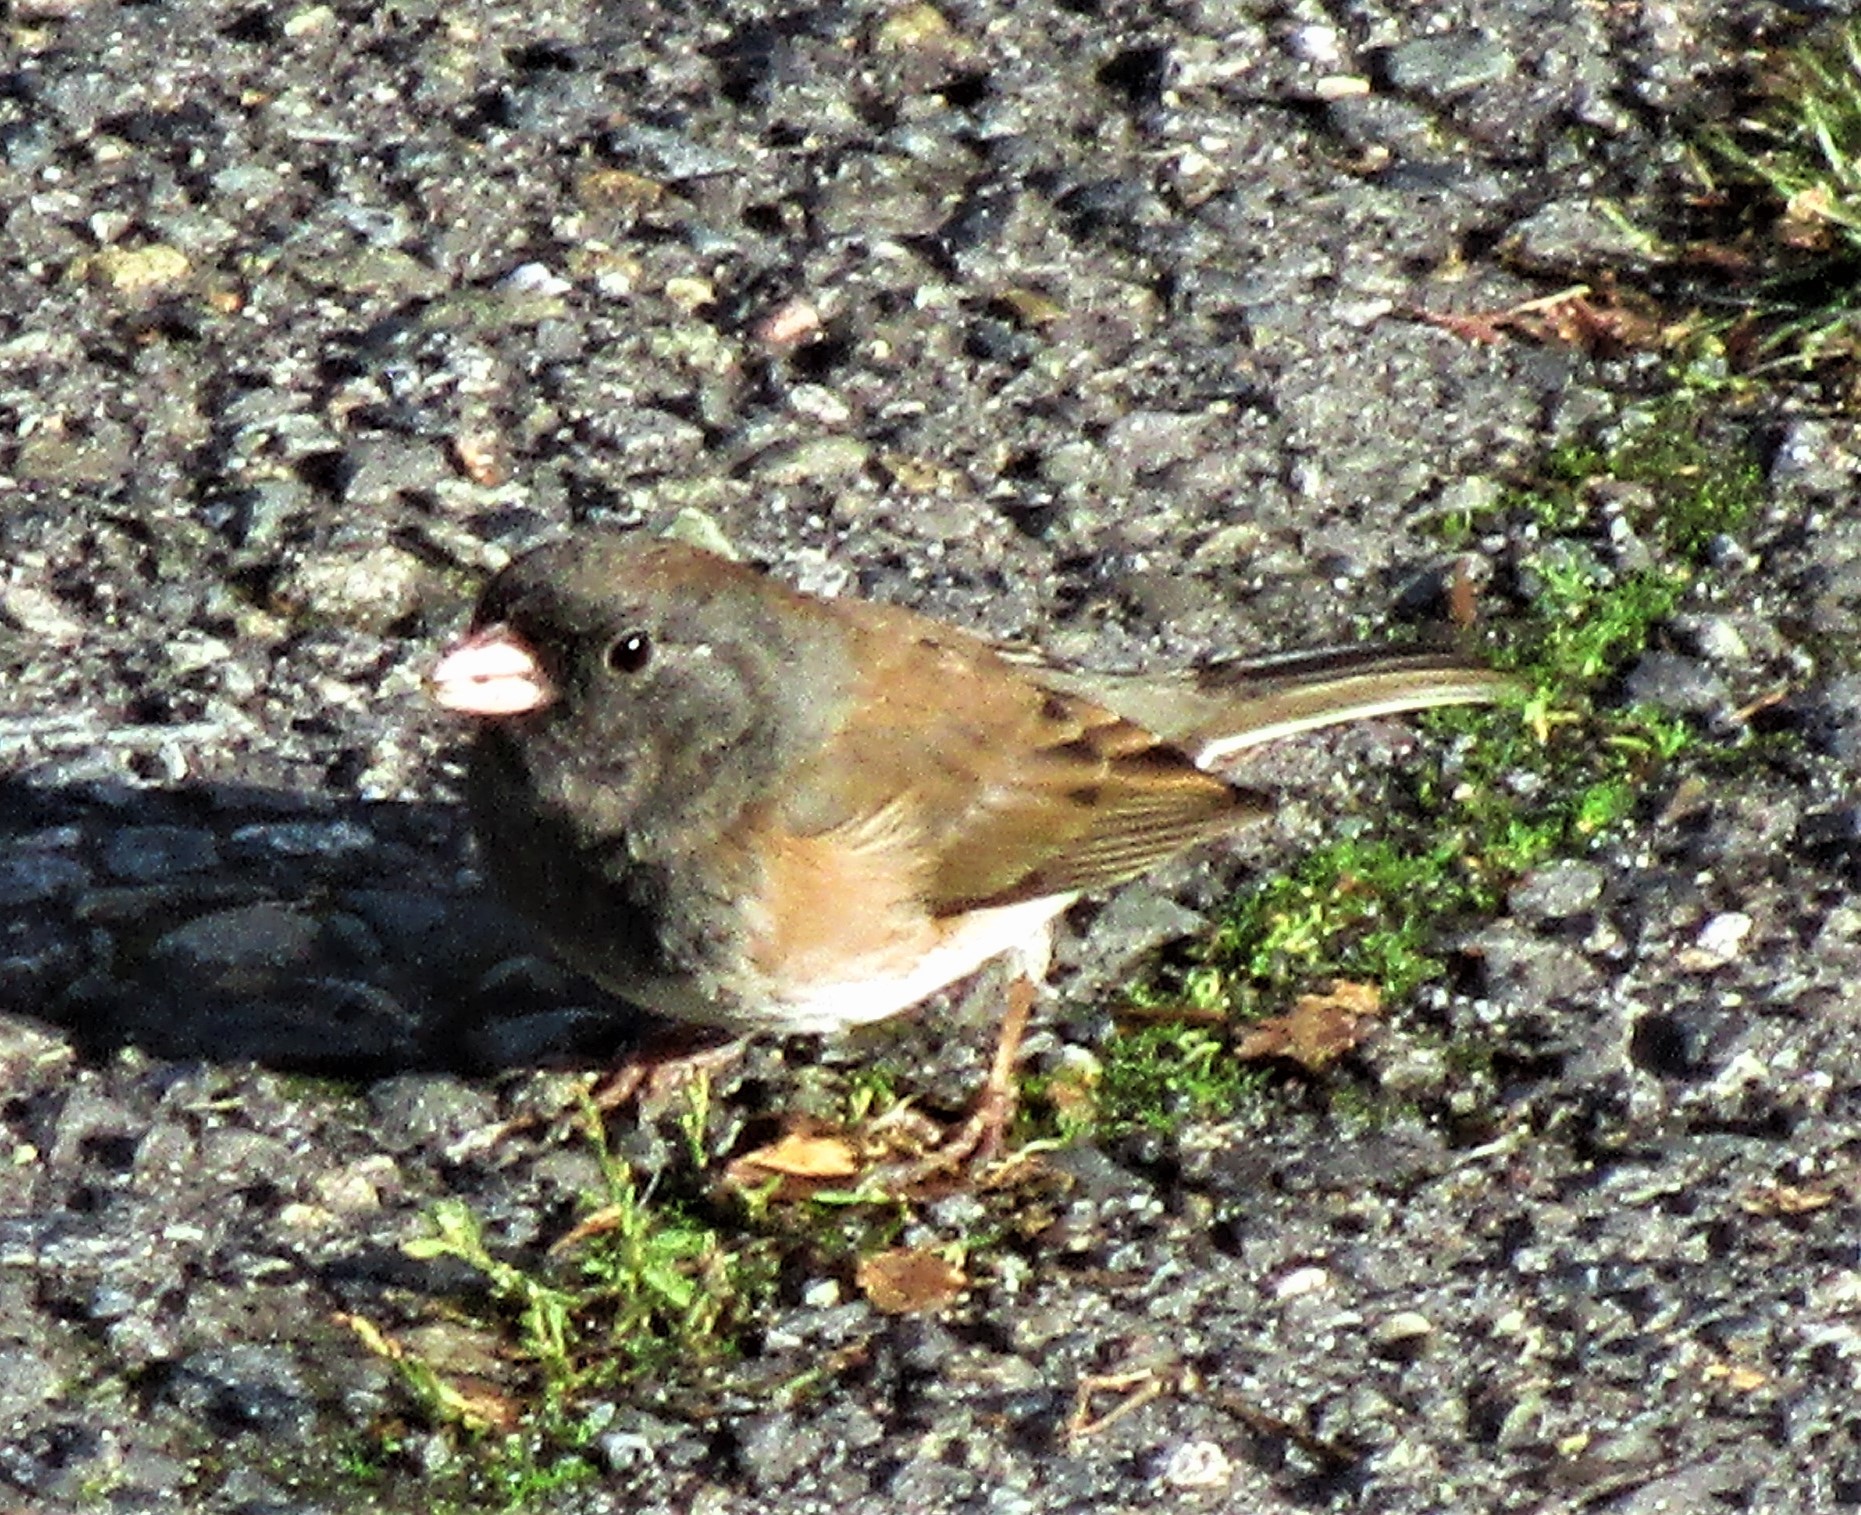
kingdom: Animalia
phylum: Chordata
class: Aves
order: Passeriformes
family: Passerellidae
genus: Junco
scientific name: Junco hyemalis
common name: Dark-eyed junco
